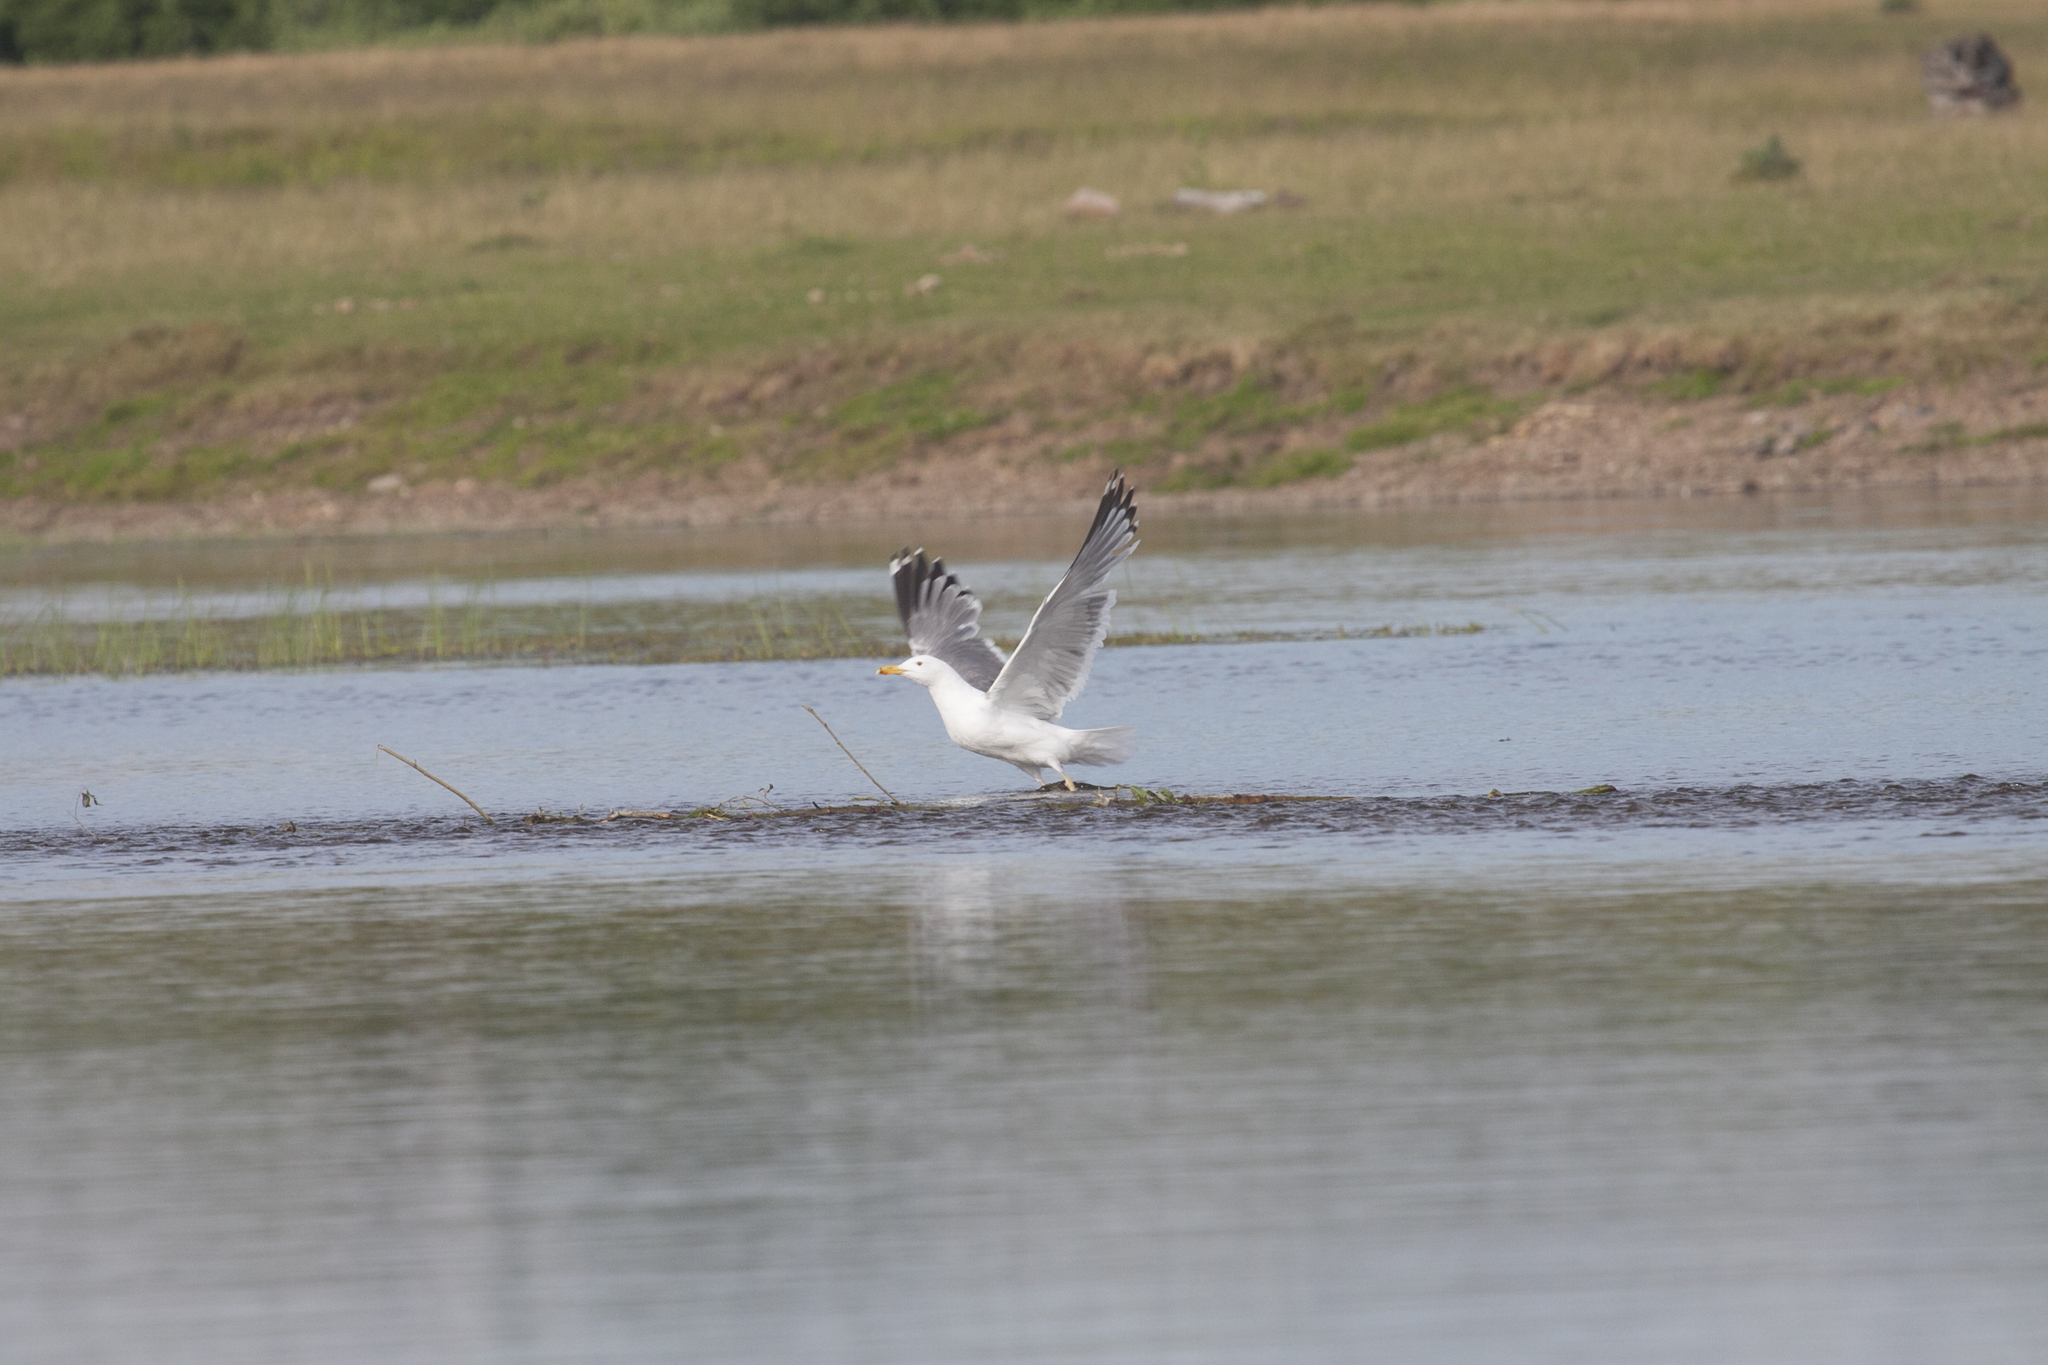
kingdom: Animalia
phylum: Chordata
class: Aves
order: Charadriiformes
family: Laridae
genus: Larus
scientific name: Larus cachinnans
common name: Caspian gull
